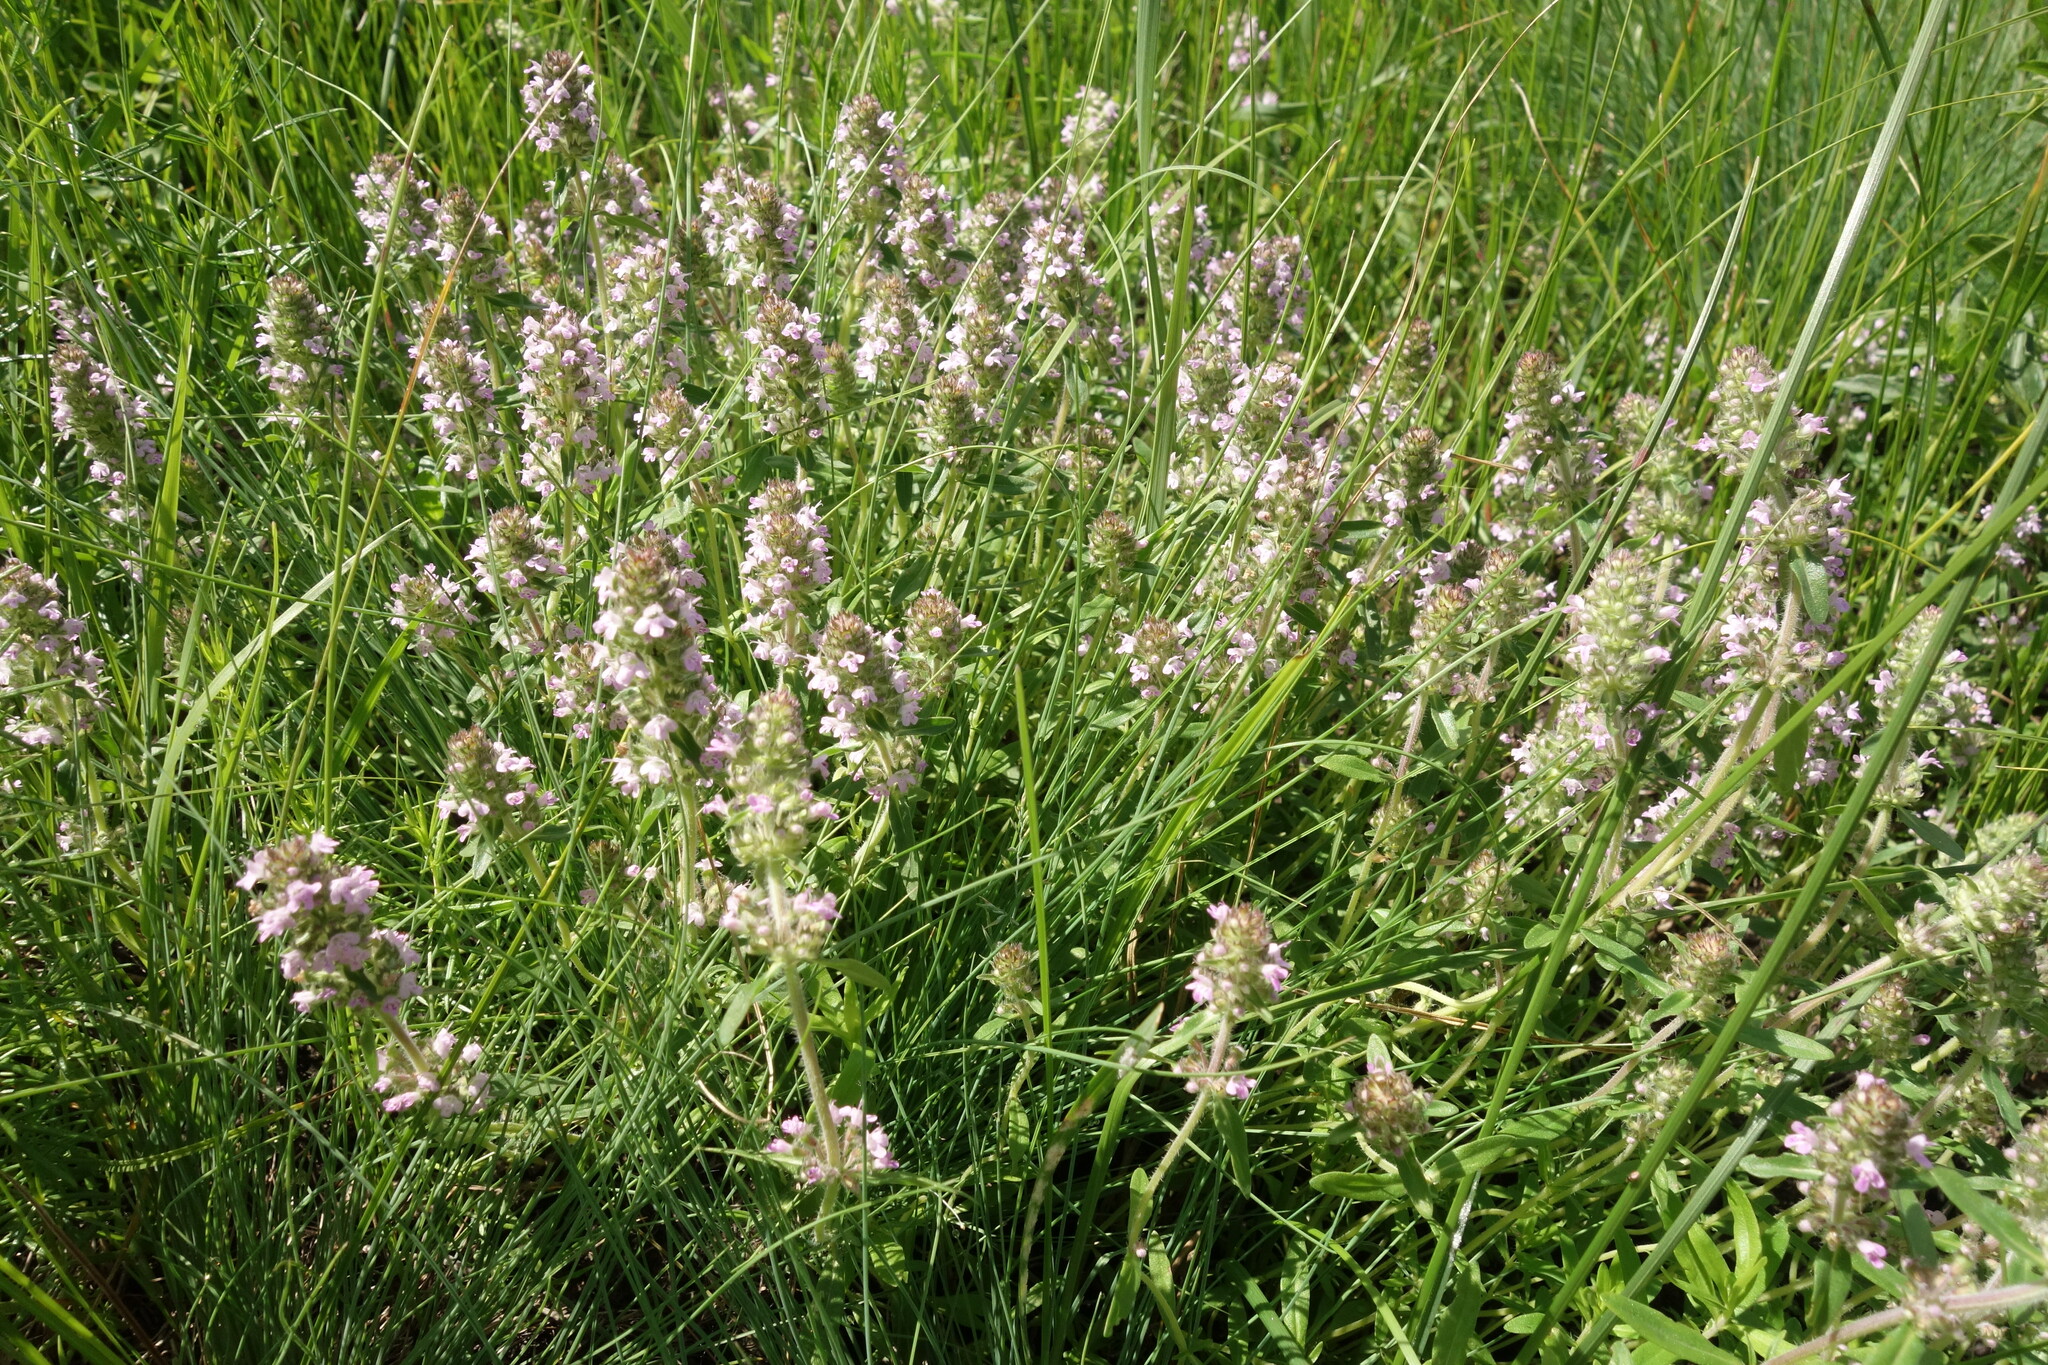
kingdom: Plantae
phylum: Tracheophyta
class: Magnoliopsida
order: Lamiales
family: Lamiaceae
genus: Thymus
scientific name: Thymus pannonicus
